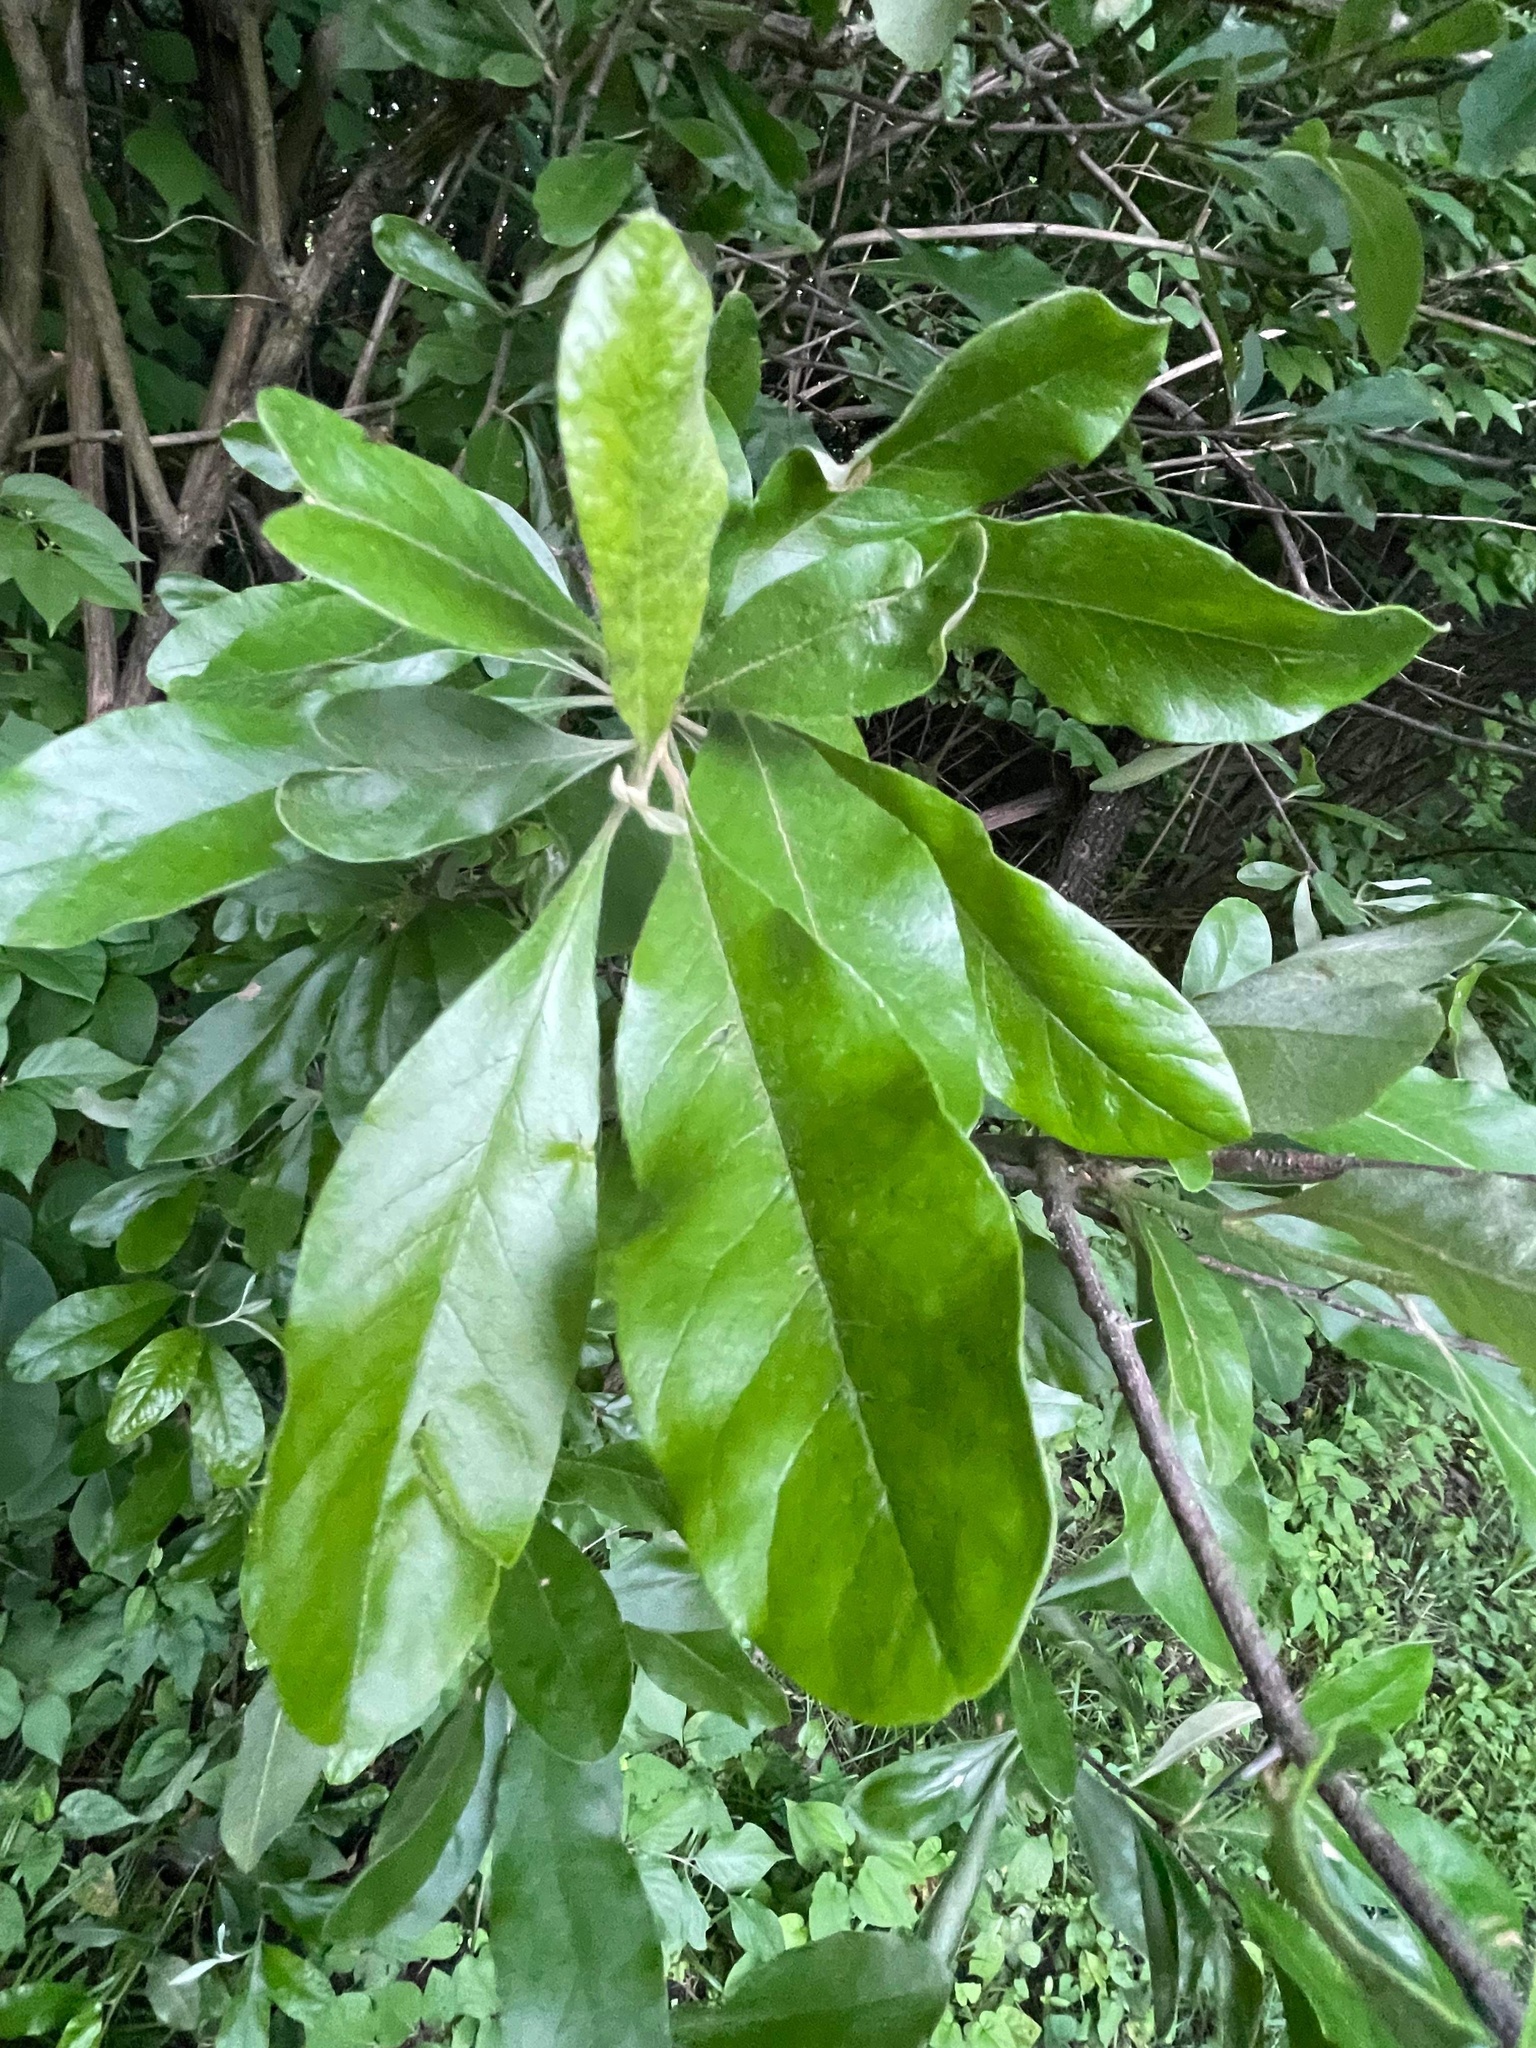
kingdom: Plantae
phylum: Tracheophyta
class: Magnoliopsida
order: Ericales
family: Sapotaceae
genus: Sideroxylon
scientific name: Sideroxylon lanuginosum
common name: Chittamwood
